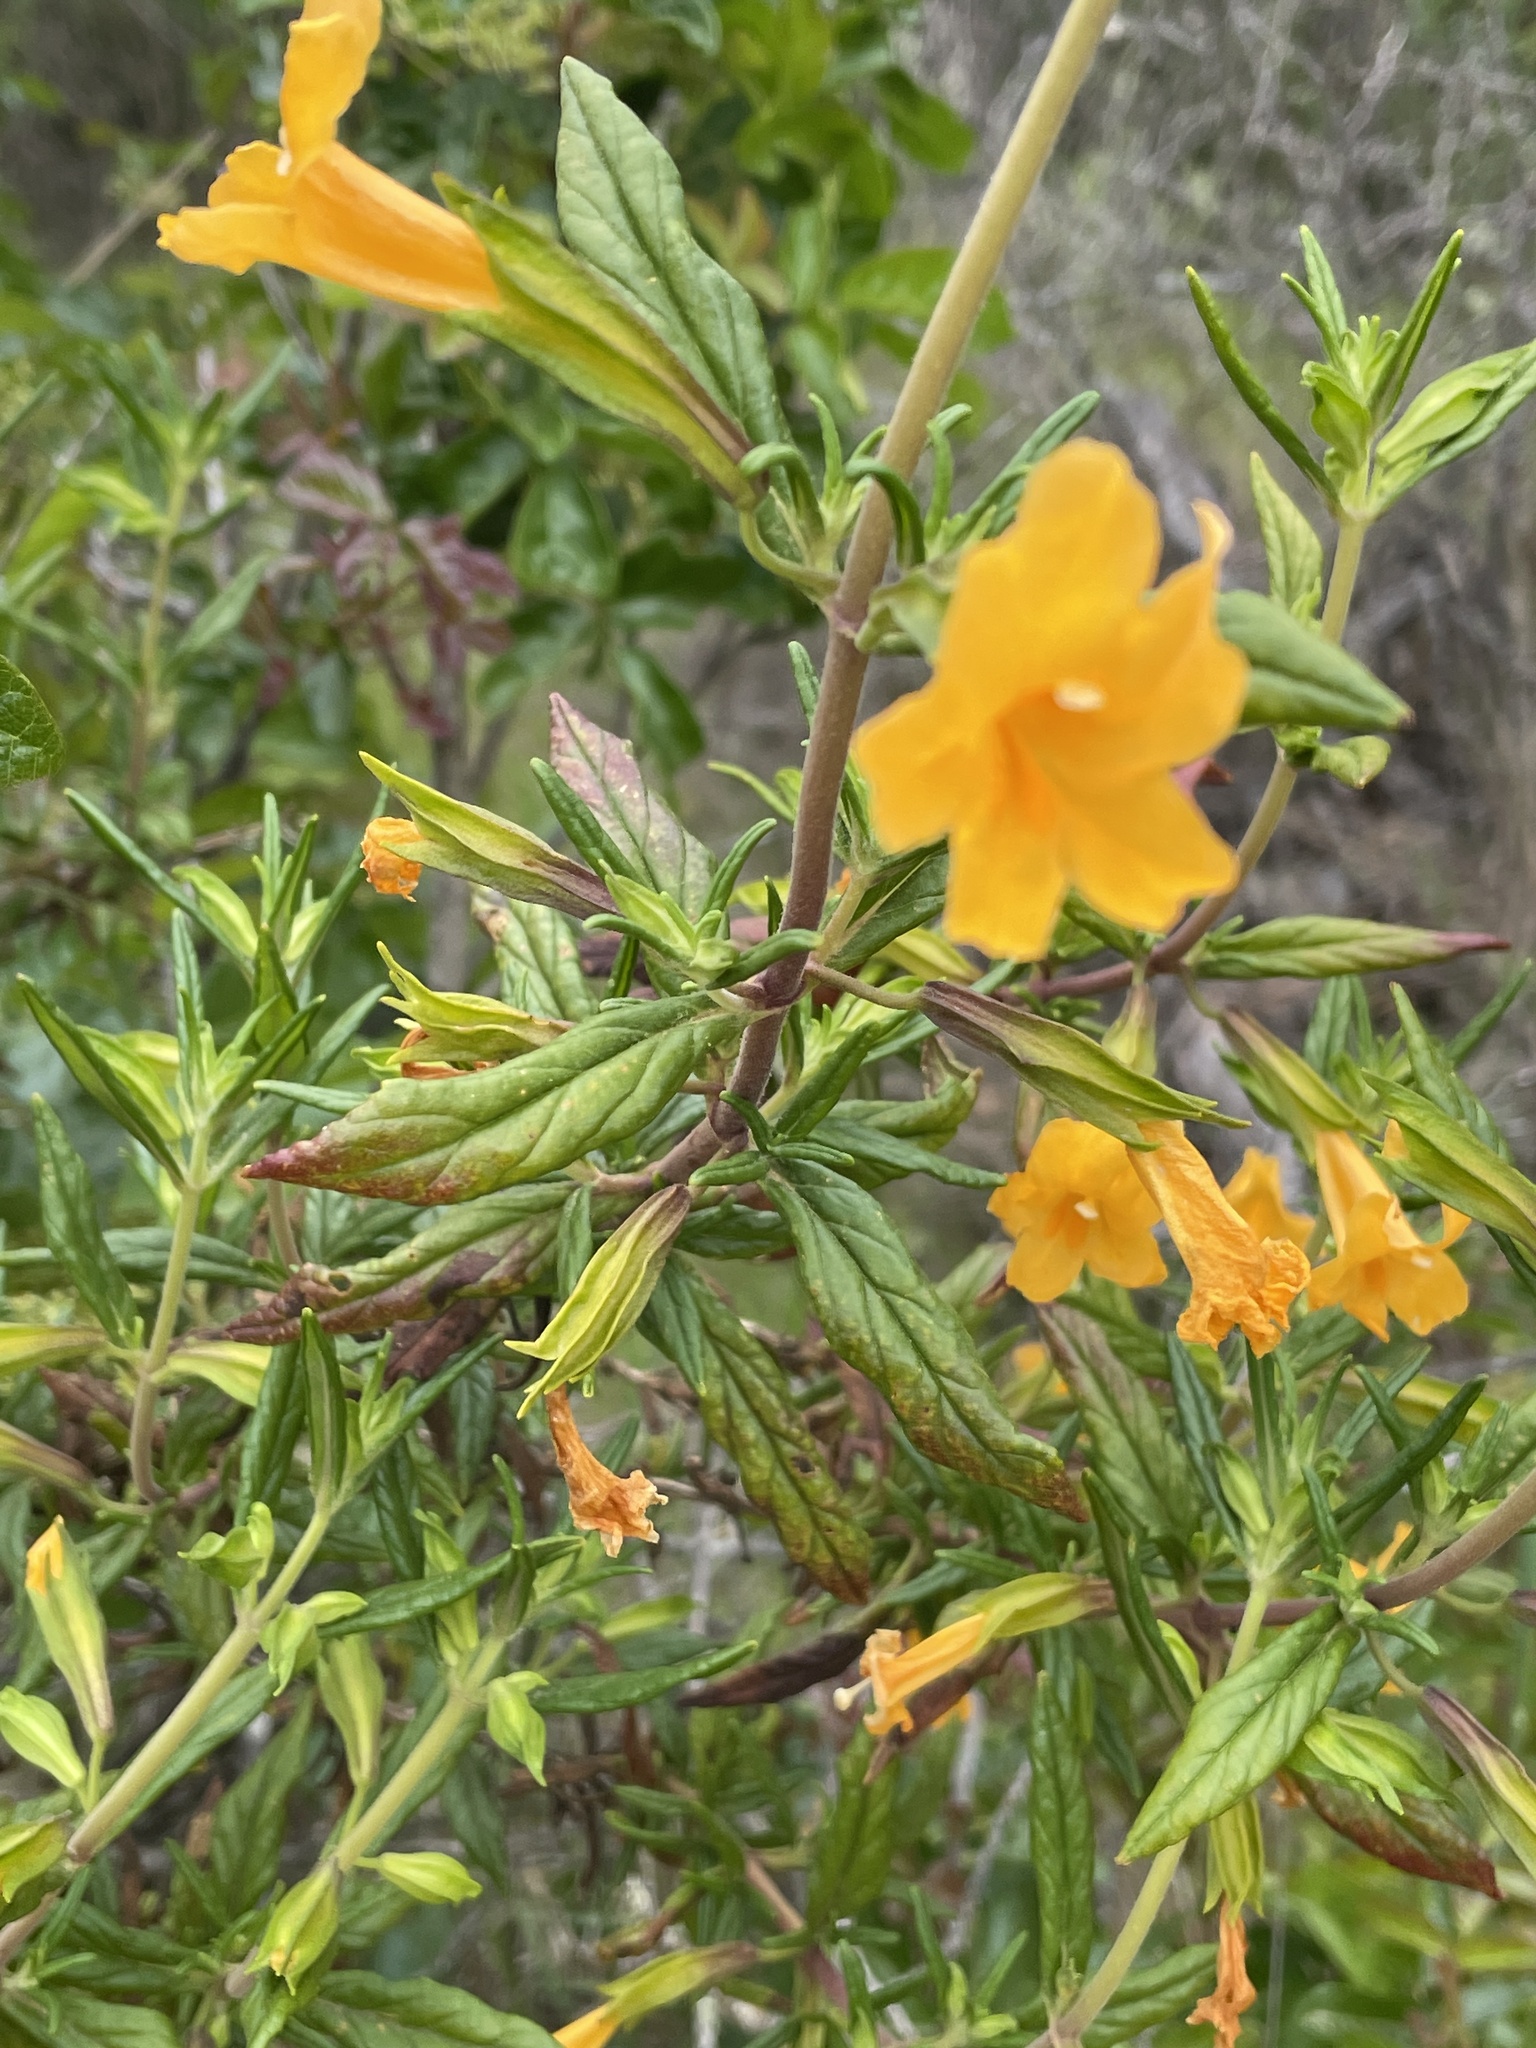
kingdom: Plantae
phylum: Tracheophyta
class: Magnoliopsida
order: Lamiales
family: Phrymaceae
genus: Diplacus
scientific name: Diplacus aurantiacus
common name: Bush monkey-flower
